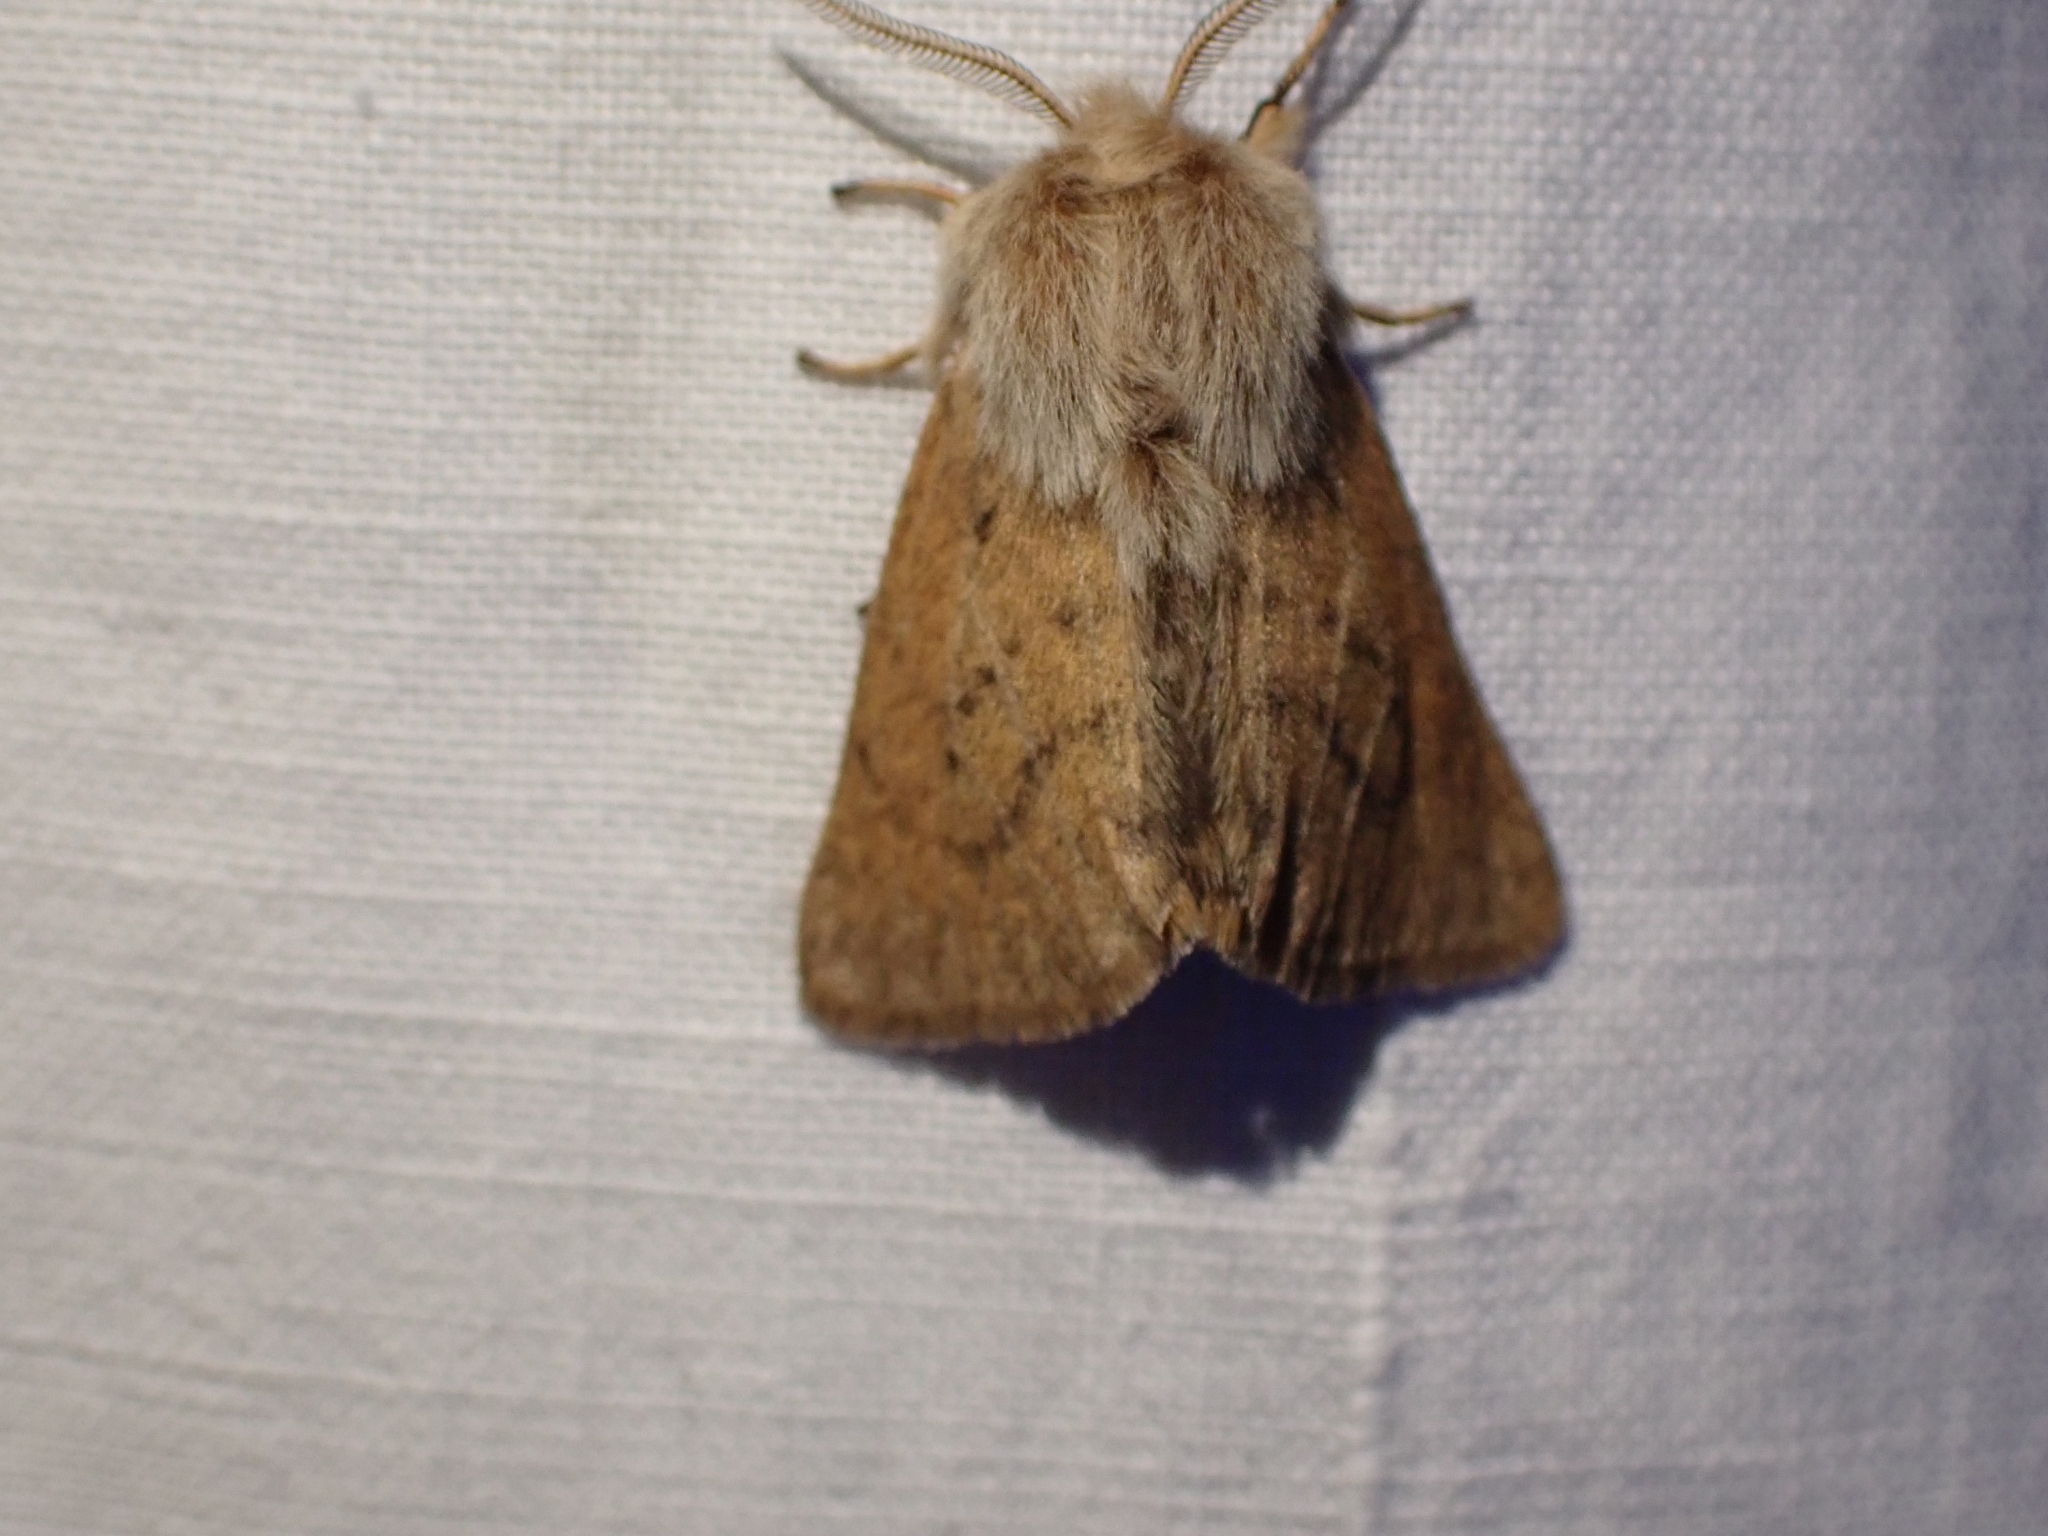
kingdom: Animalia
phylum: Arthropoda
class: Insecta
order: Lepidoptera
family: Erebidae
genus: Spilosoma
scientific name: Spilosoma vagans
